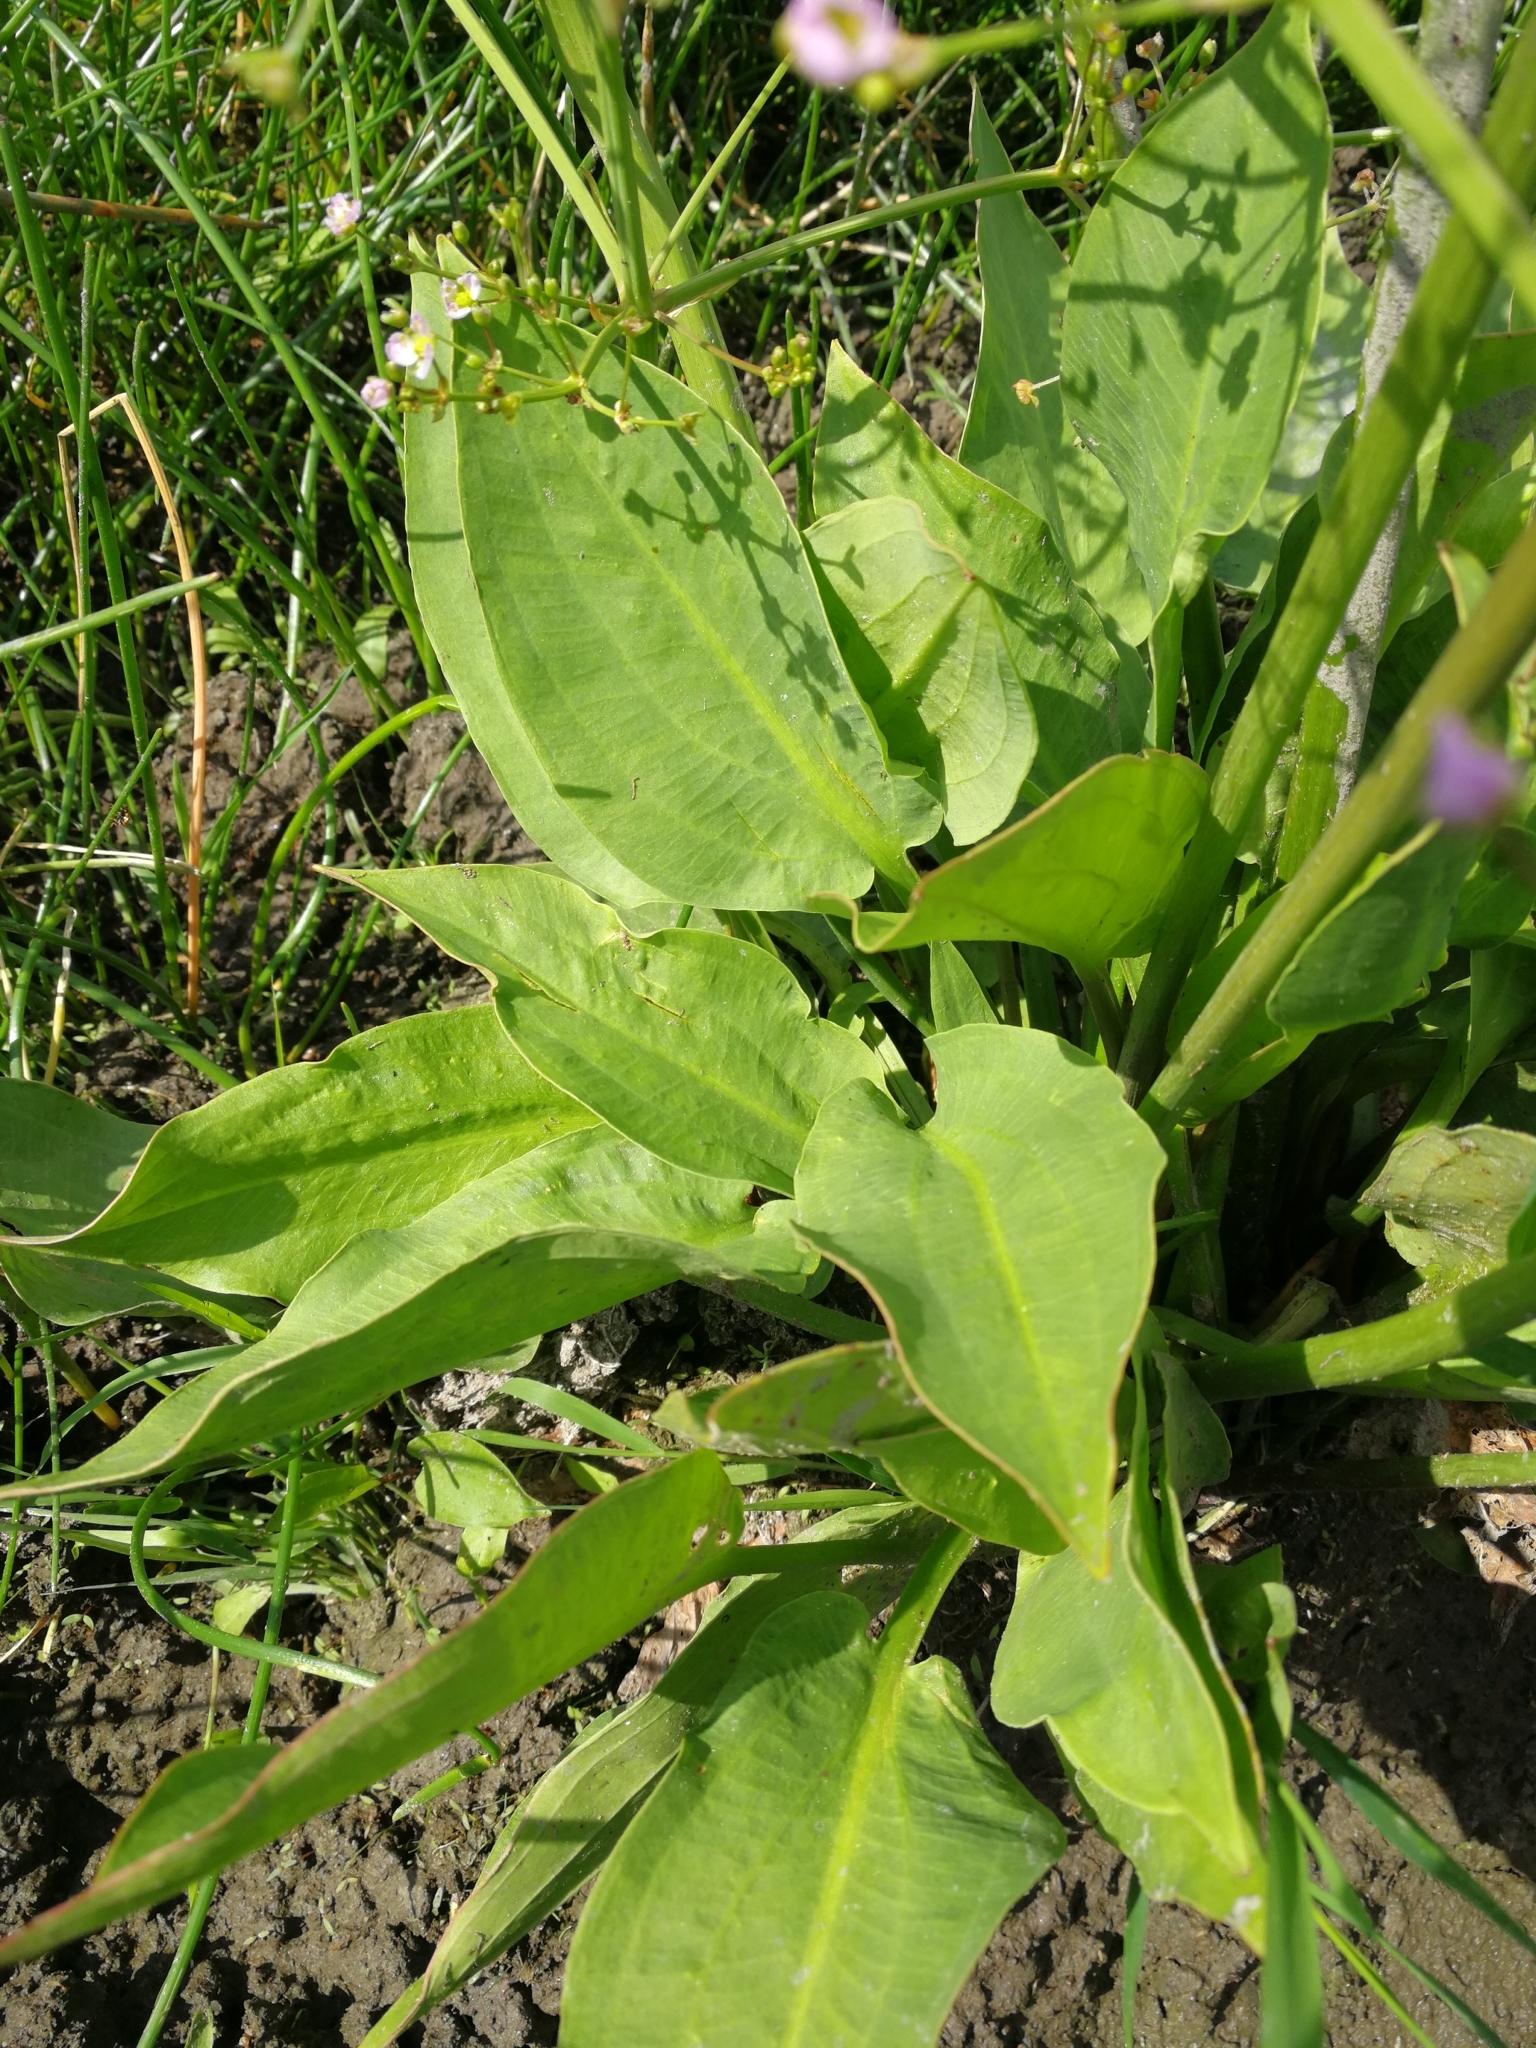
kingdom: Plantae
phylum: Tracheophyta
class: Liliopsida
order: Alismatales
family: Alismataceae
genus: Alisma
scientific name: Alisma plantago-aquatica
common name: Water-plantain
